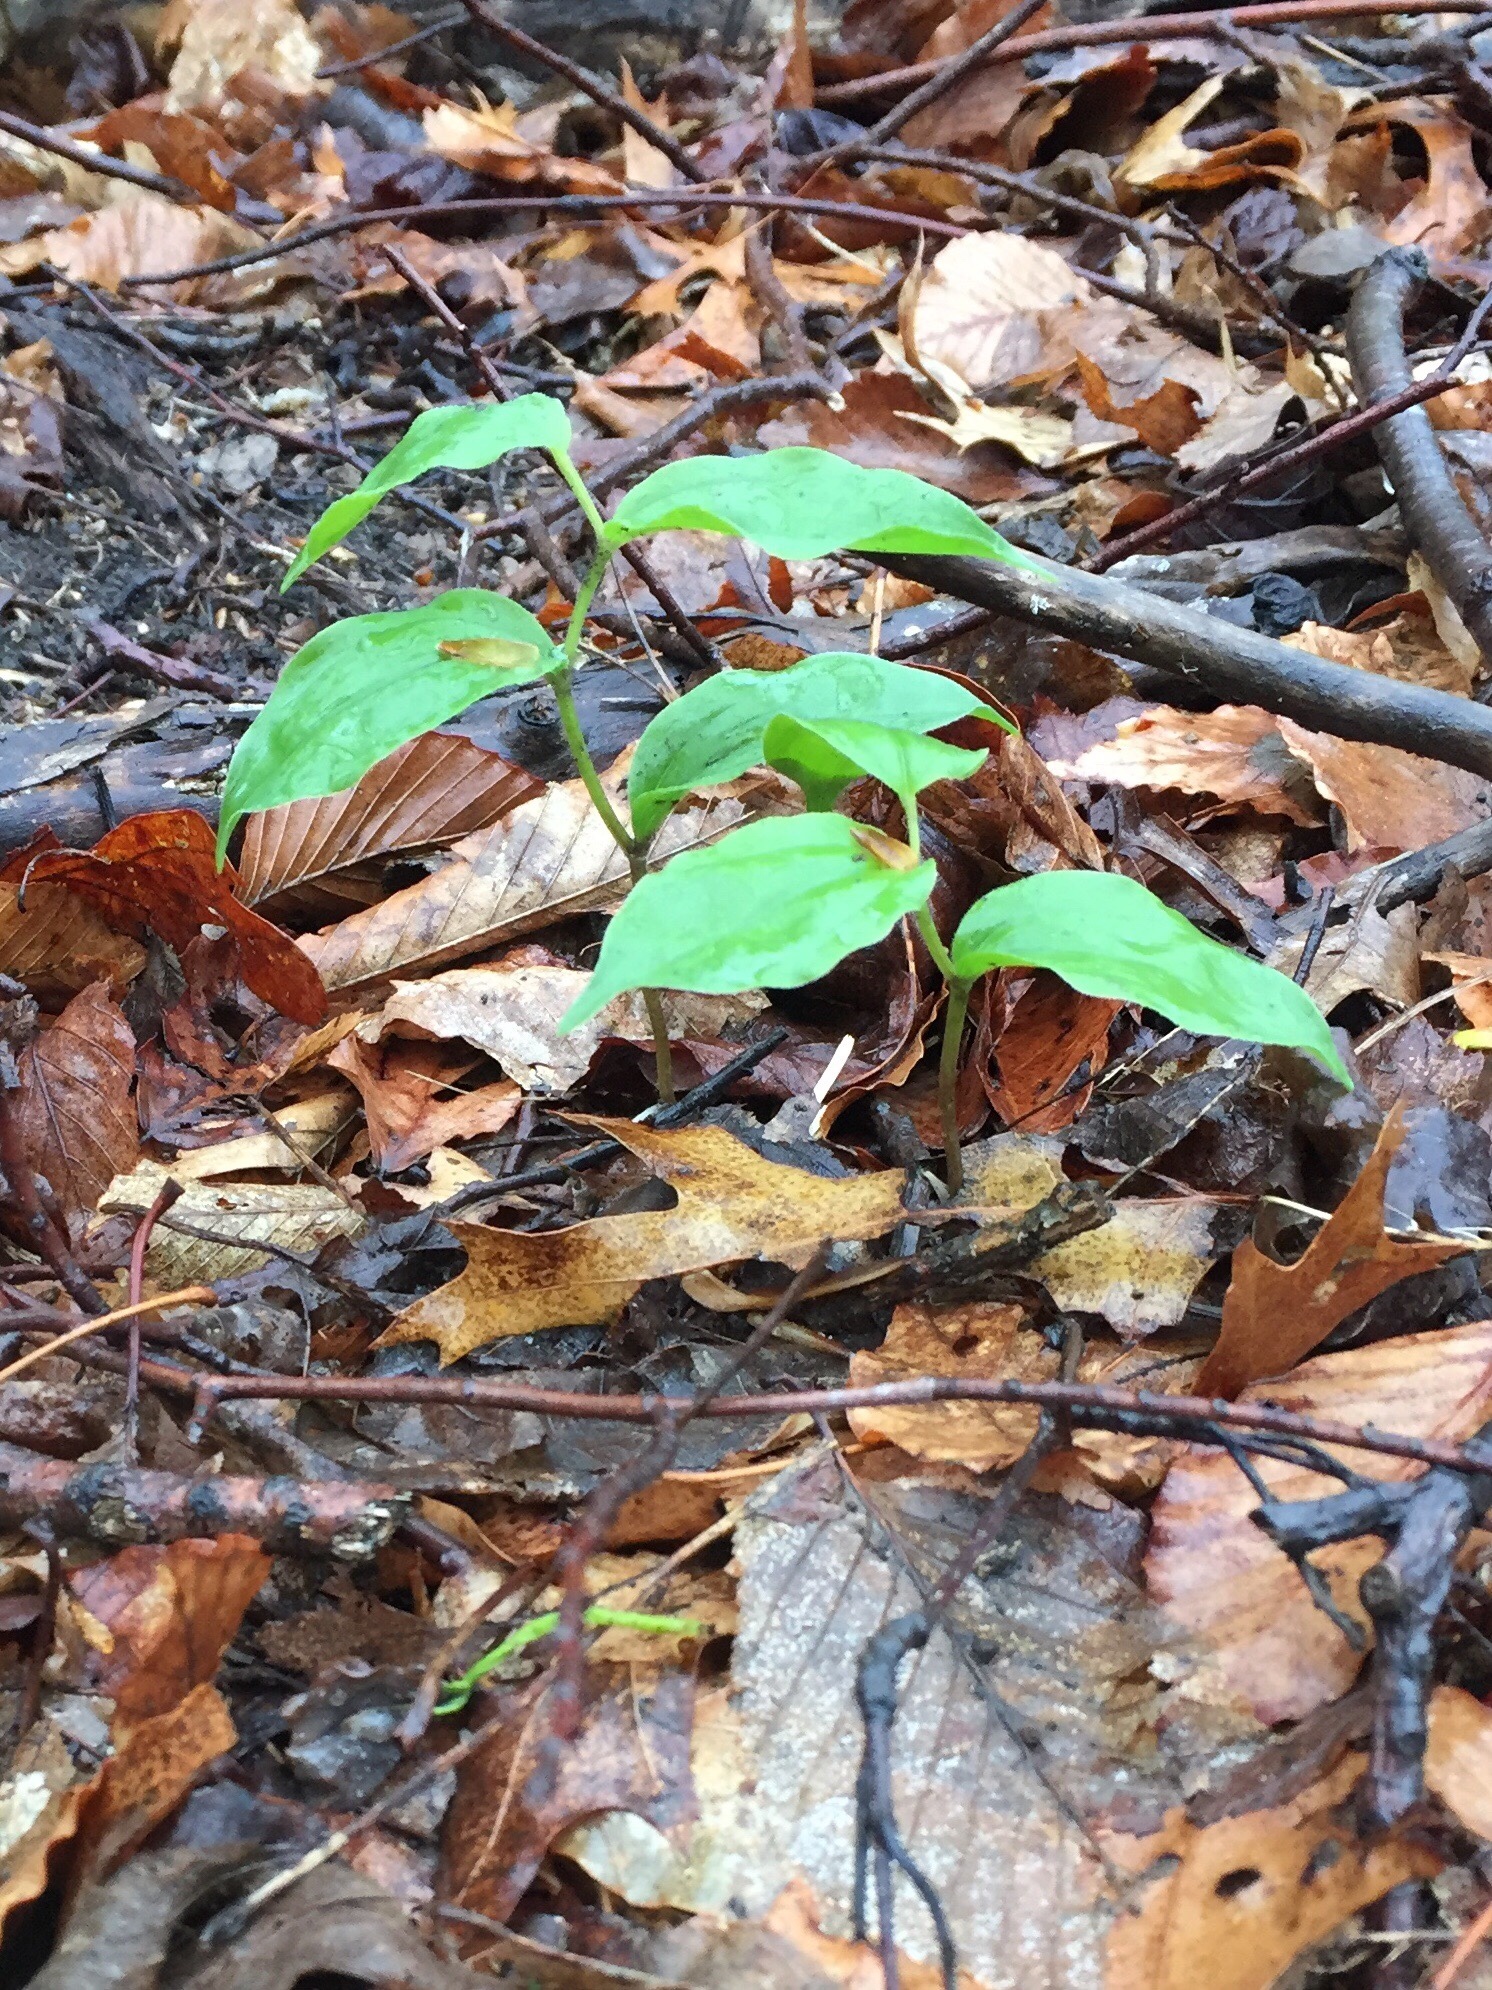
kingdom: Plantae
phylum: Tracheophyta
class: Liliopsida
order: Asparagales
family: Asparagaceae
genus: Maianthemum
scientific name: Maianthemum racemosum
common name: False spikenard
